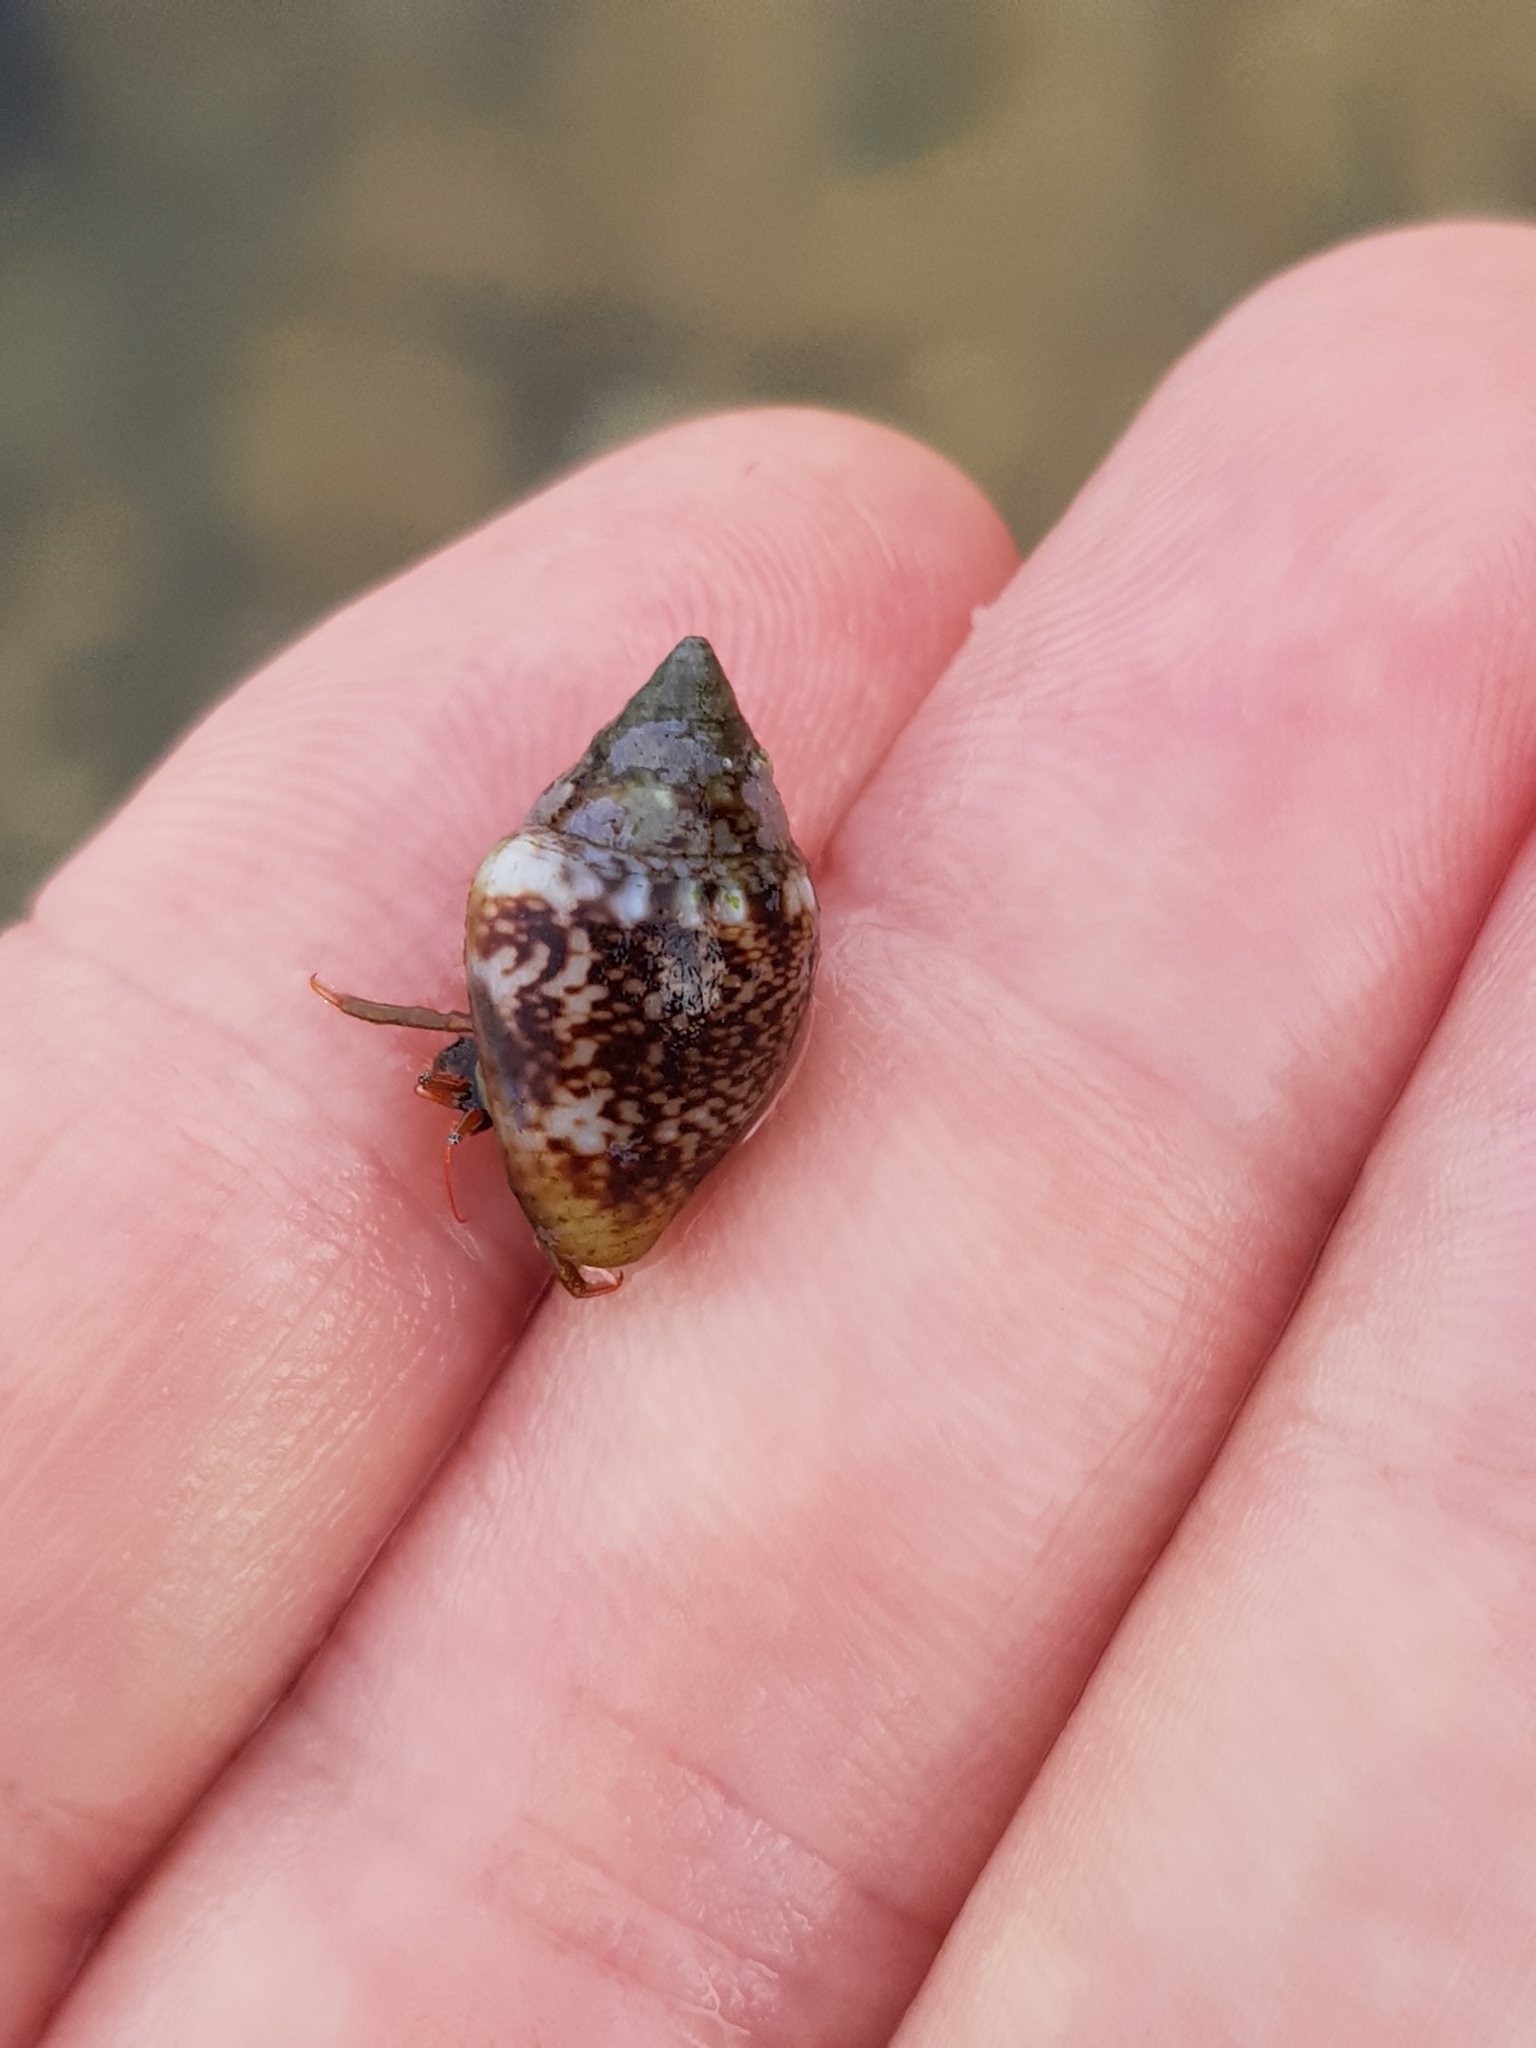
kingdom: Animalia
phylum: Mollusca
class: Gastropoda
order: Neogastropoda
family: Columbellidae
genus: Columbella
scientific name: Columbella rustica
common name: Rustic dove shell
